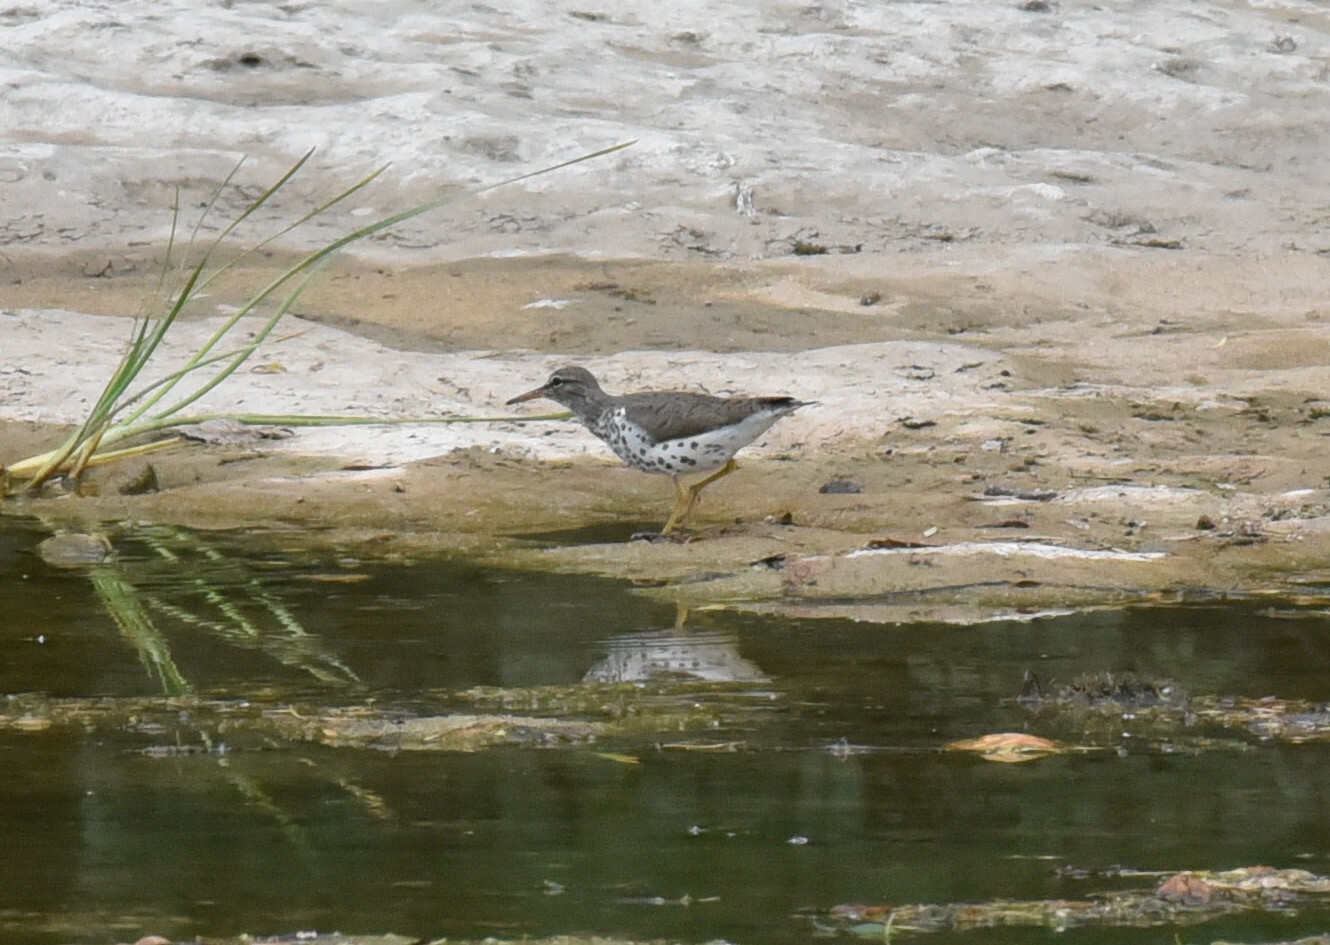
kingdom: Animalia
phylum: Chordata
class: Aves
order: Charadriiformes
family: Scolopacidae
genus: Actitis
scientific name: Actitis macularius
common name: Spotted sandpiper
